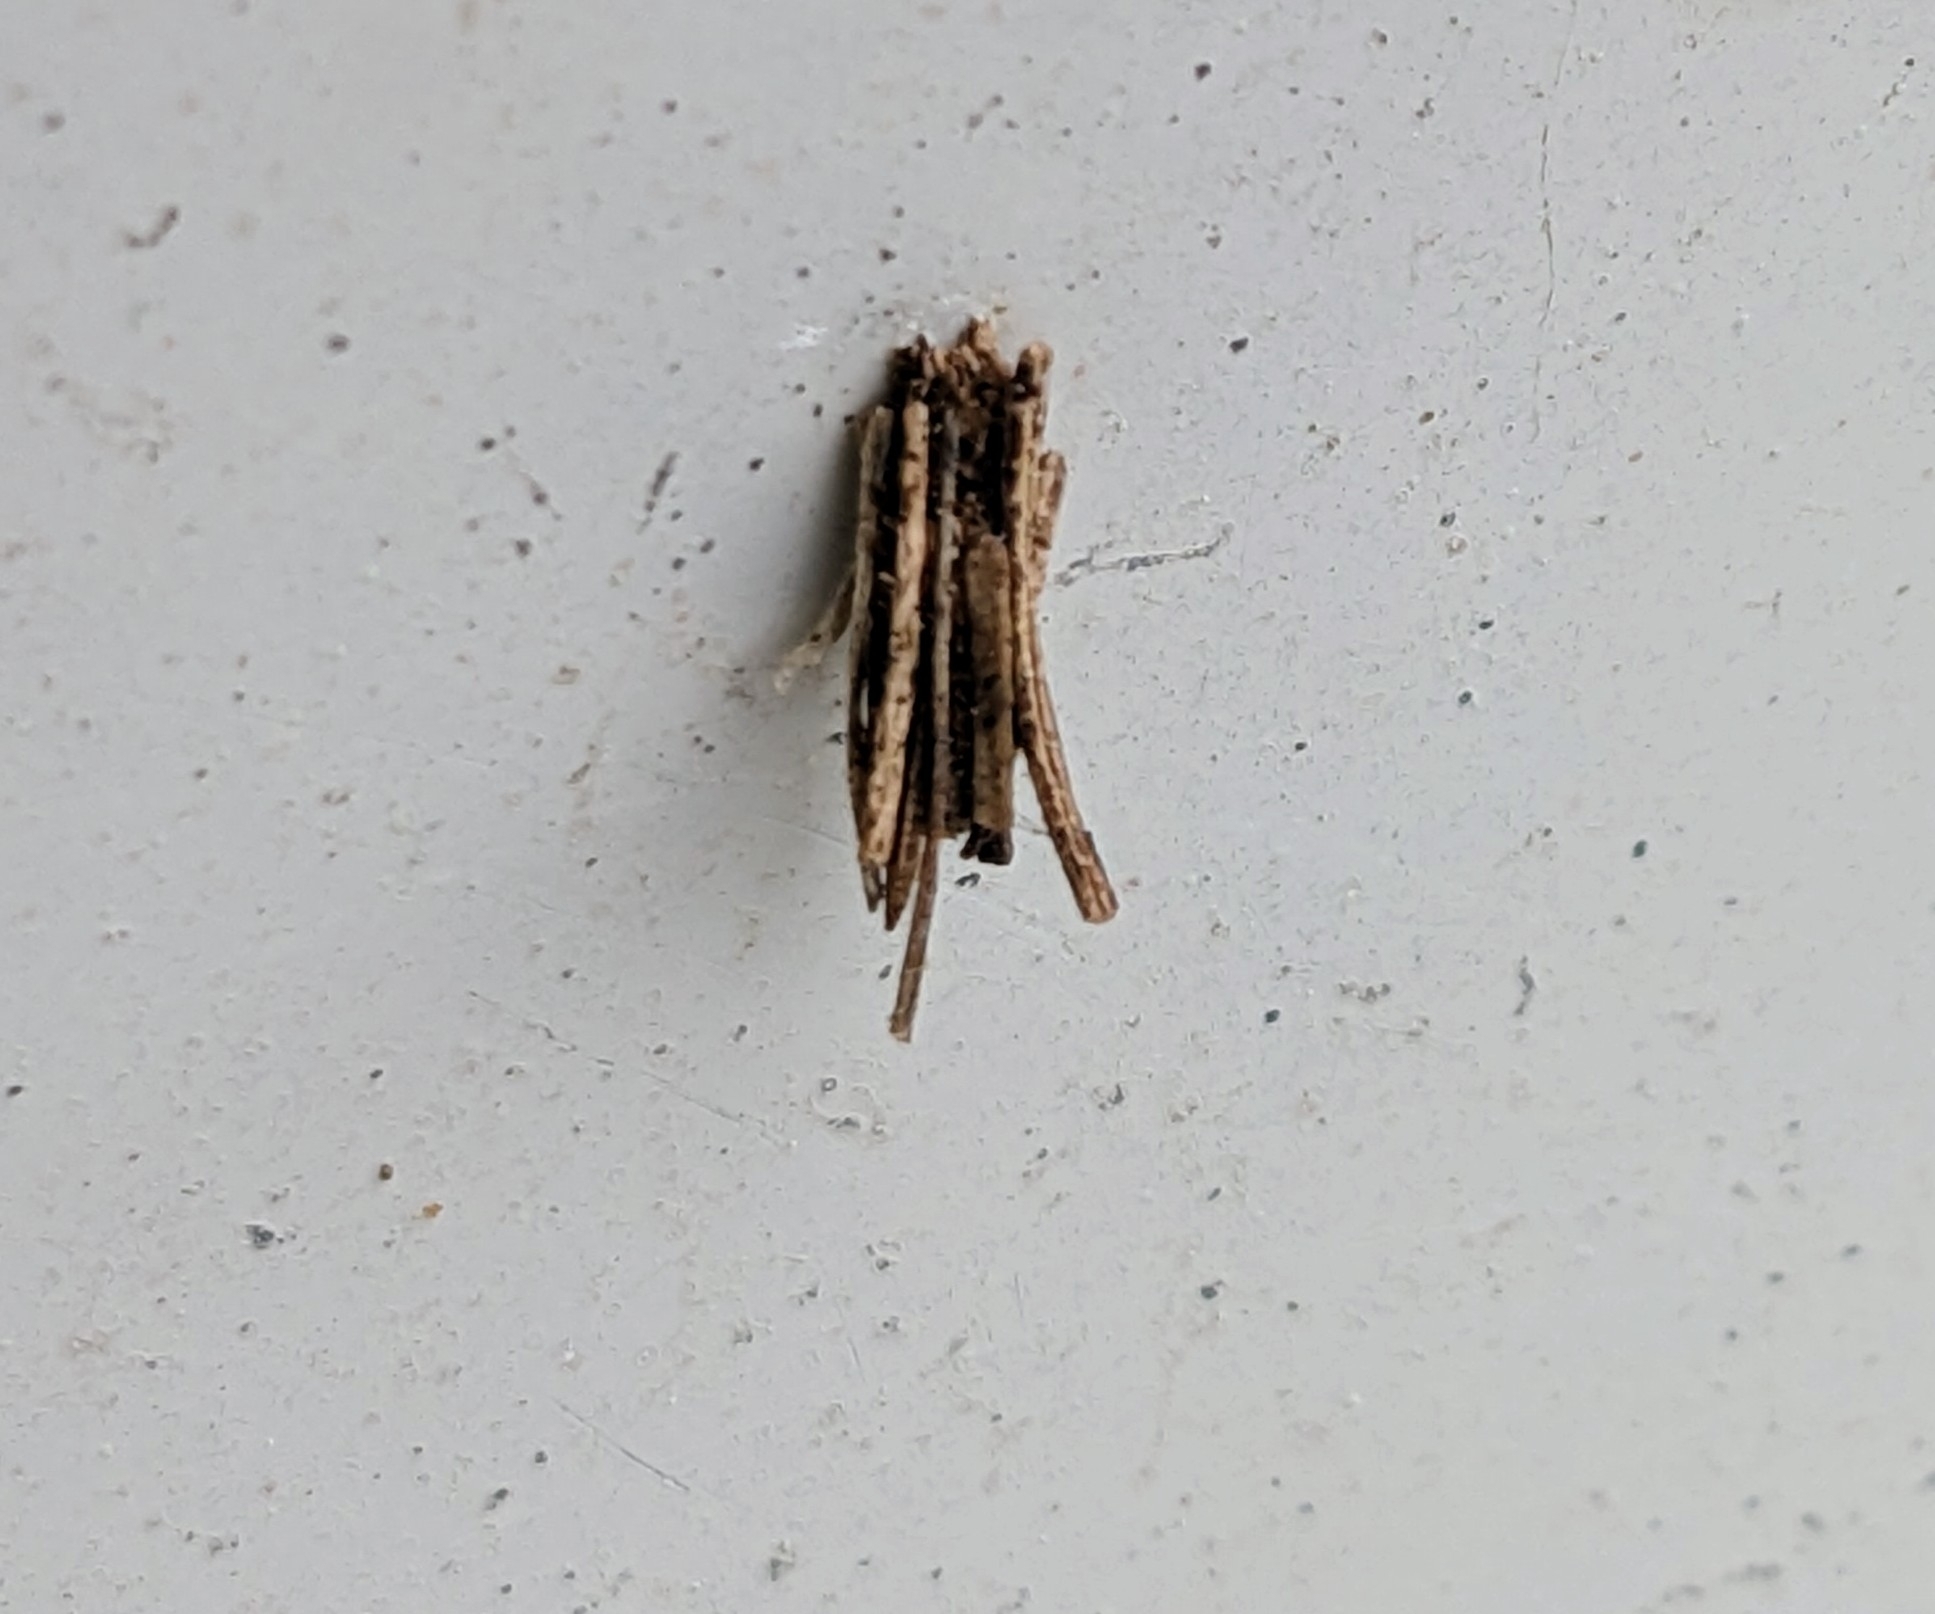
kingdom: Animalia
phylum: Arthropoda
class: Insecta
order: Lepidoptera
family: Psychidae
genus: Psyche
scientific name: Psyche casta
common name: Common sweep
